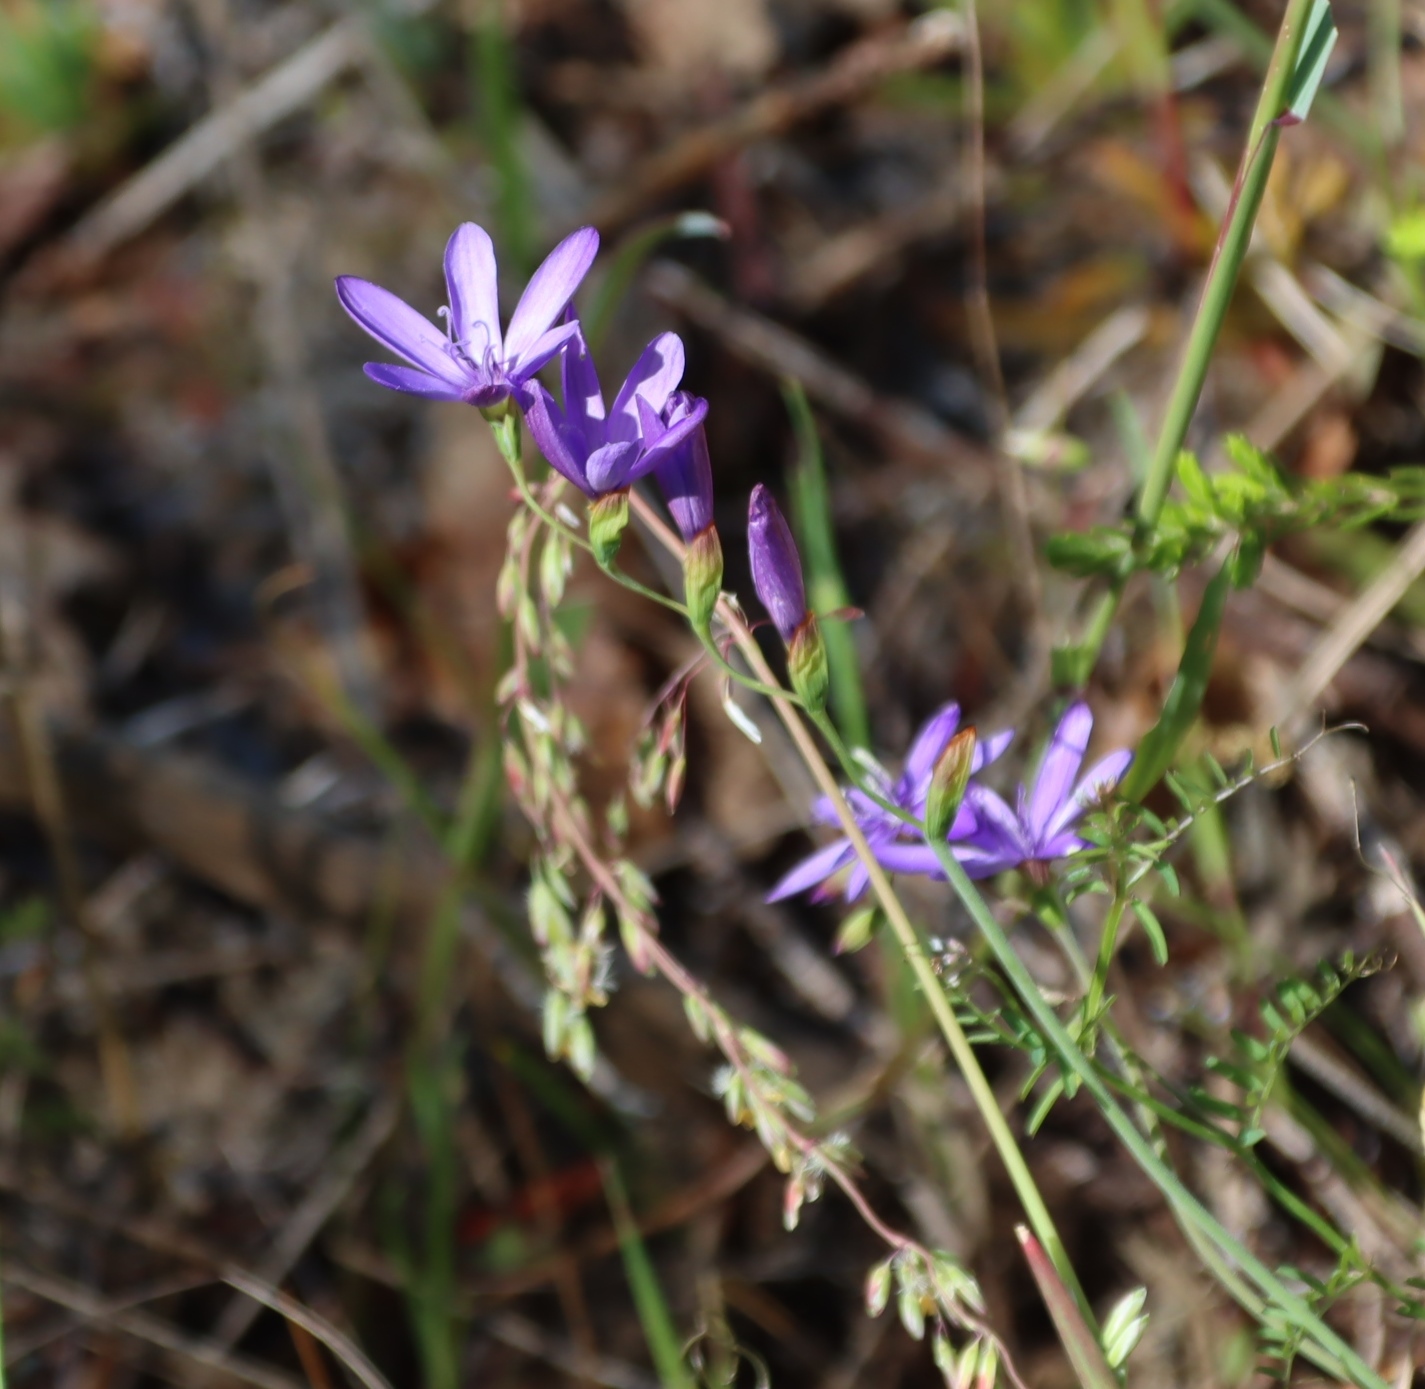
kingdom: Plantae
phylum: Tracheophyta
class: Liliopsida
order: Asparagales
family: Iridaceae
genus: Geissorhiza
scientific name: Geissorhiza aspera
